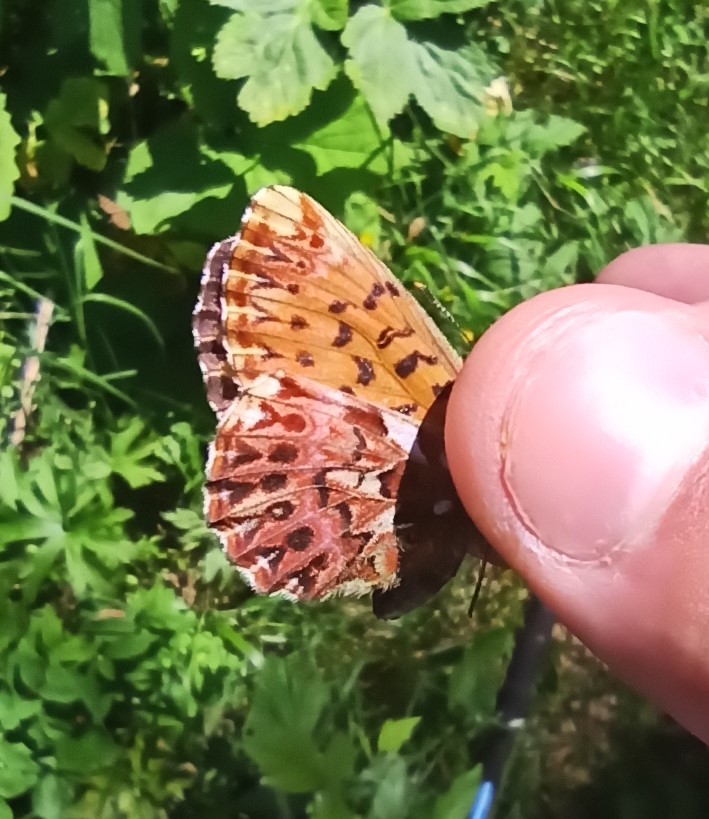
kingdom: Animalia
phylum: Arthropoda
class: Insecta
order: Lepidoptera
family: Nymphalidae
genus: Boloria
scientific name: Boloria titania
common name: Titania's fritillary
